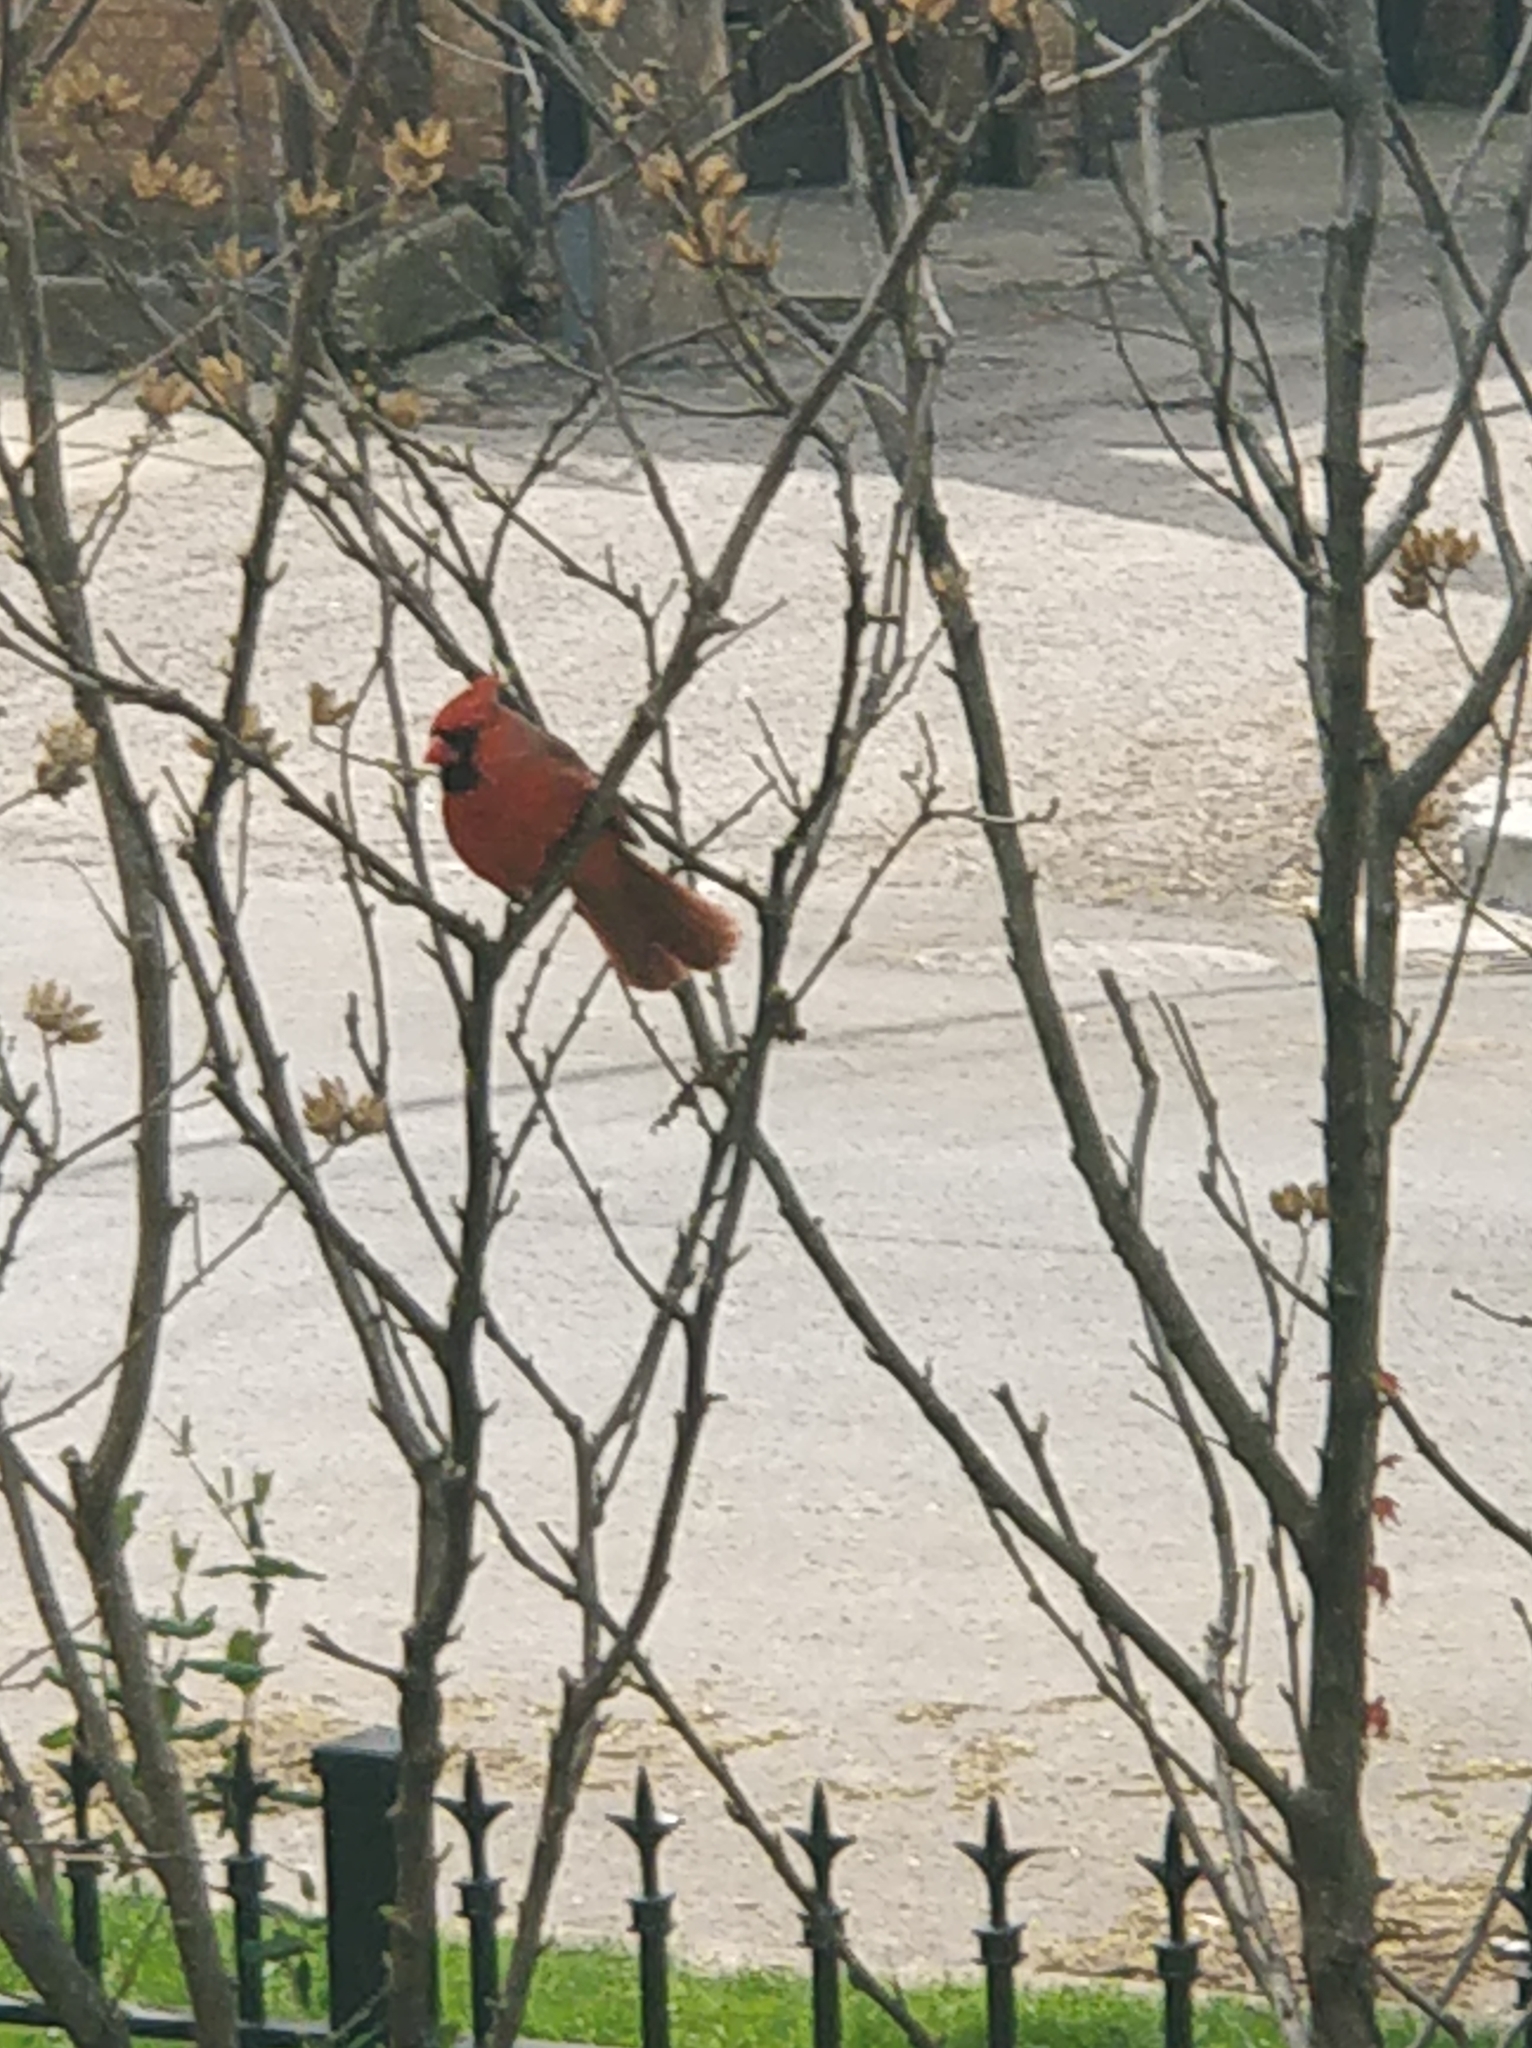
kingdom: Animalia
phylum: Chordata
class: Aves
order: Passeriformes
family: Cardinalidae
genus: Cardinalis
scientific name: Cardinalis cardinalis
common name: Northern cardinal
